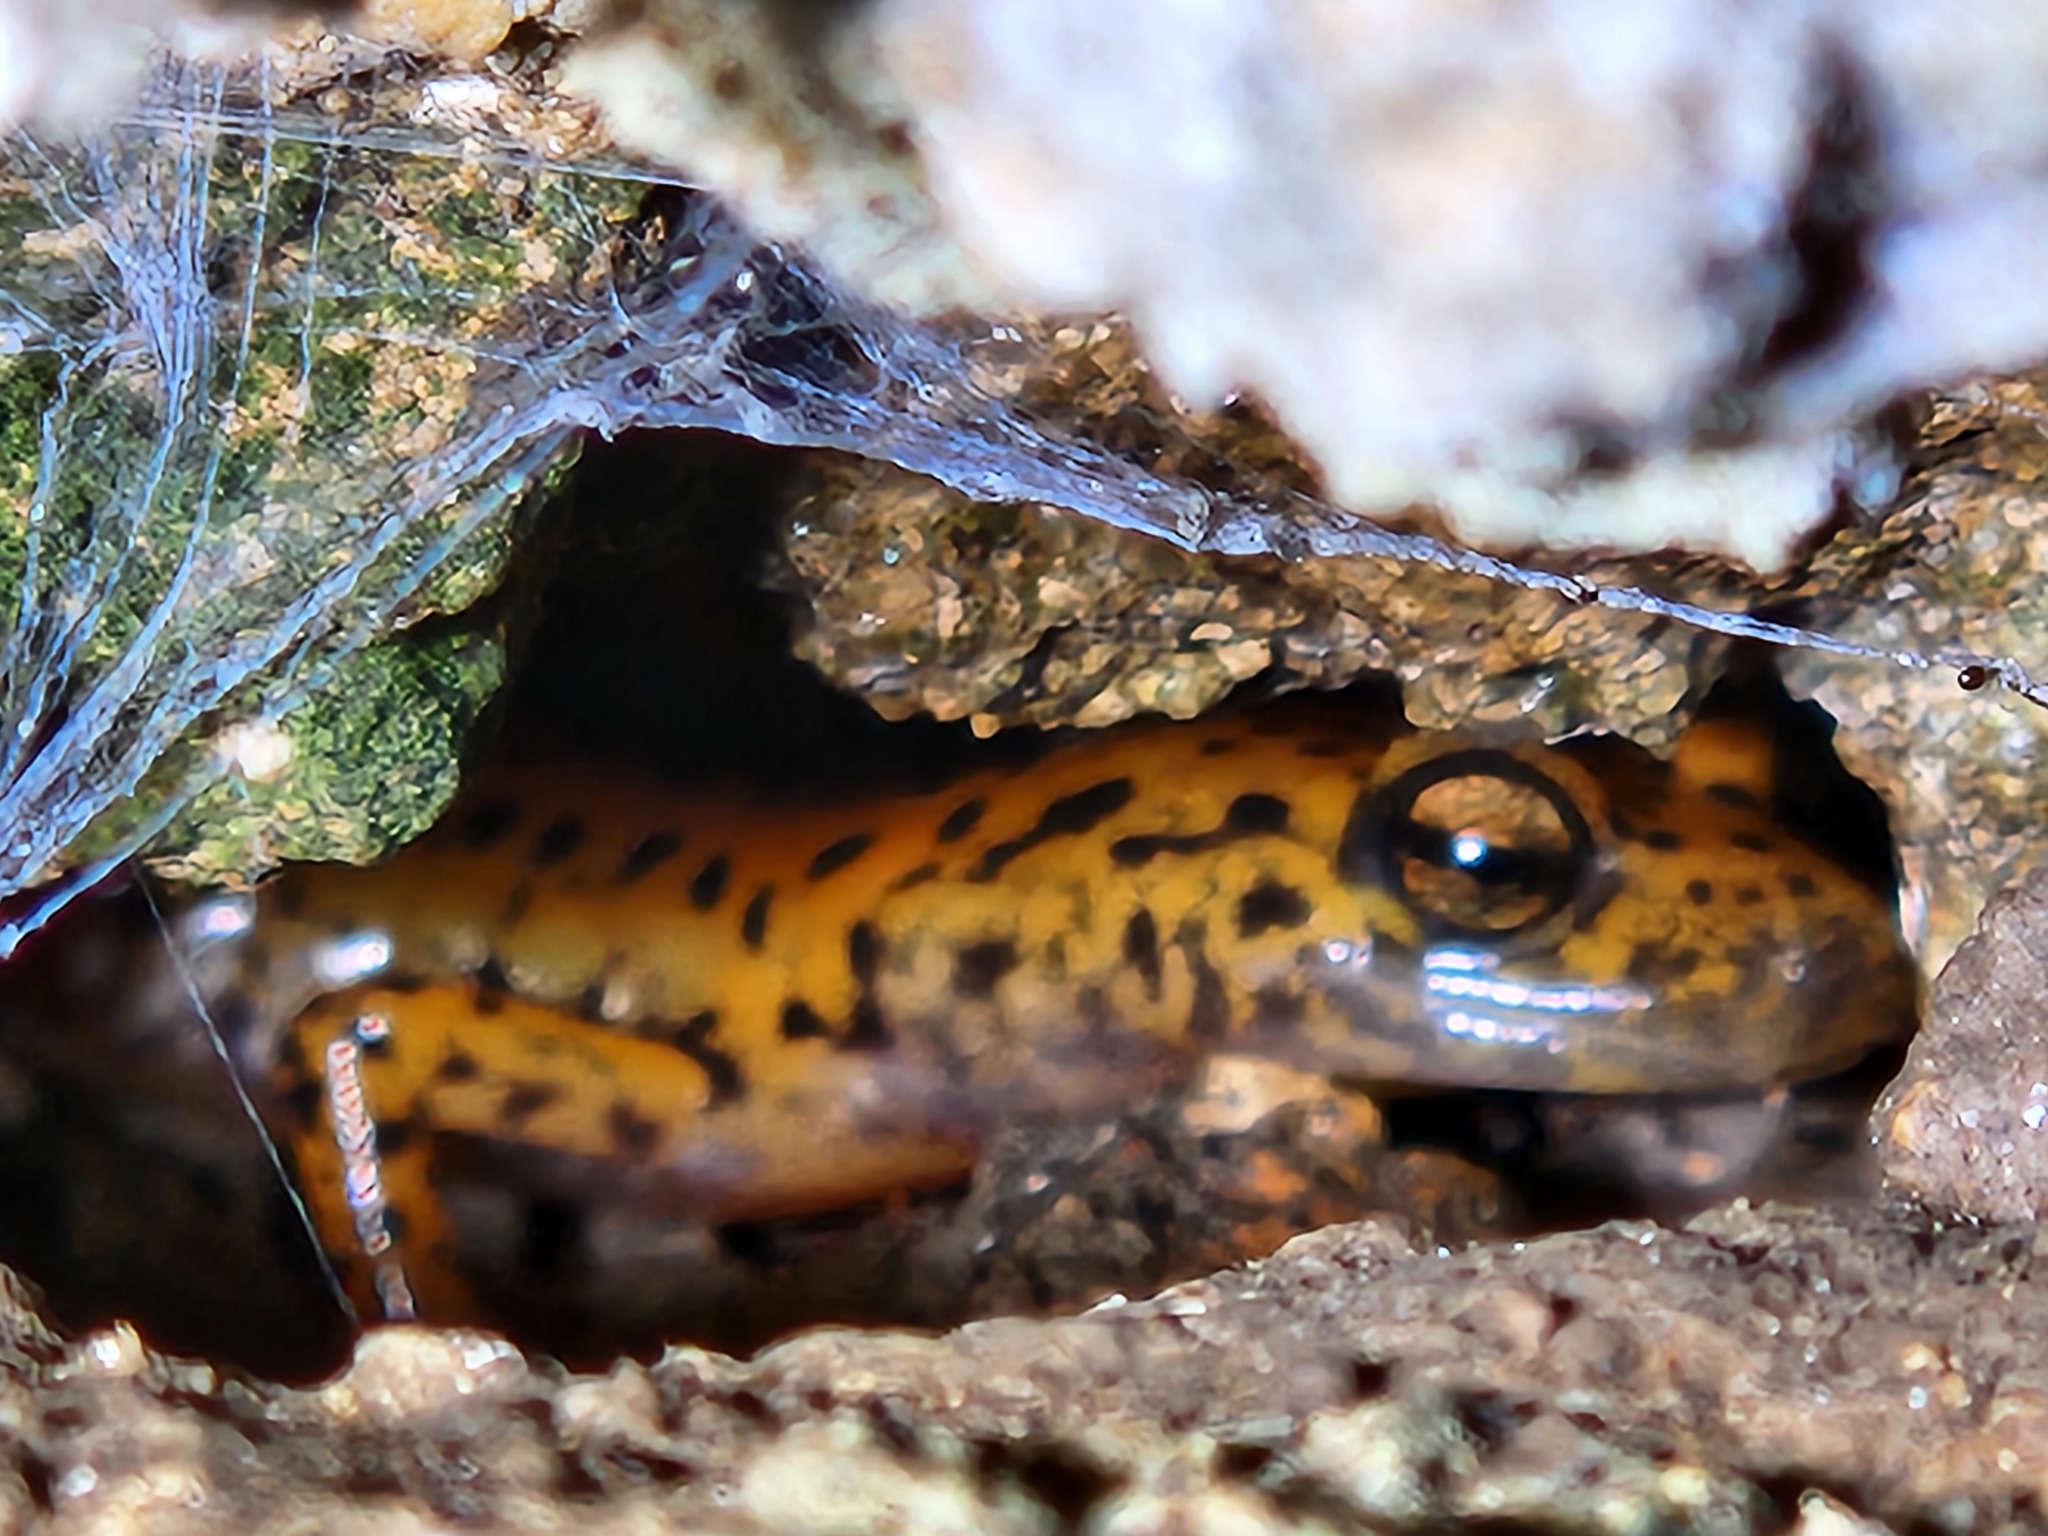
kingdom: Animalia
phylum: Chordata
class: Amphibia
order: Caudata
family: Plethodontidae
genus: Eurycea
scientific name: Eurycea lucifuga
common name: Cave salamander
